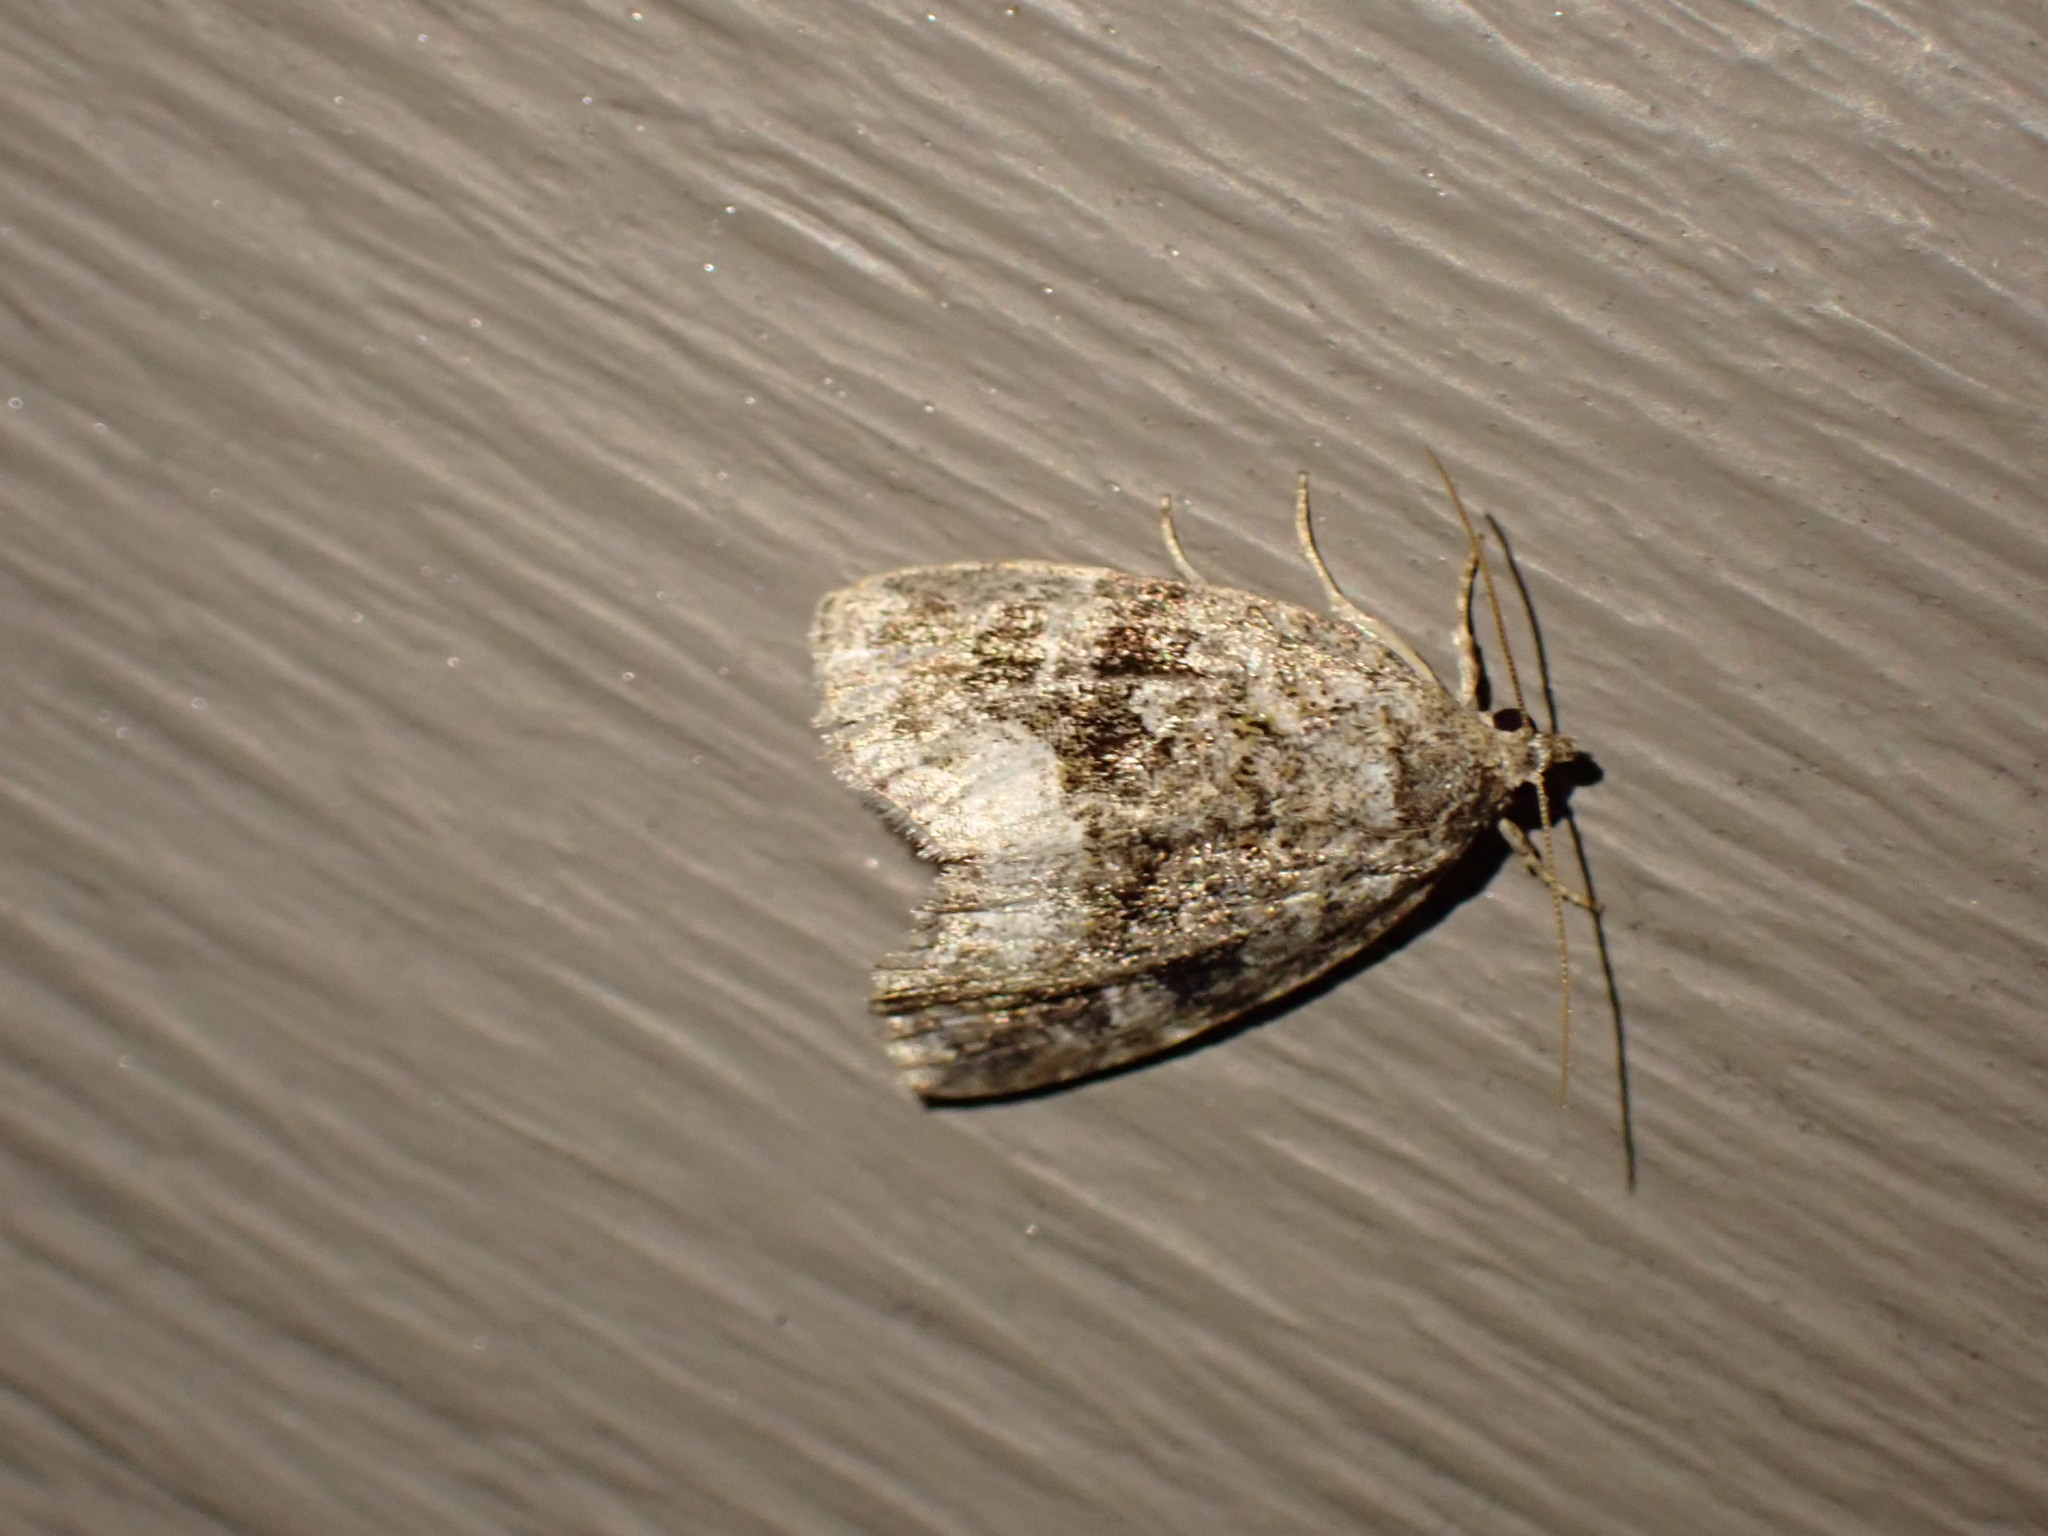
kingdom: Animalia
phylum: Arthropoda
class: Insecta
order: Lepidoptera
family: Noctuidae
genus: Protodeltote
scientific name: Protodeltote muscosula
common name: Large mossy glyph
